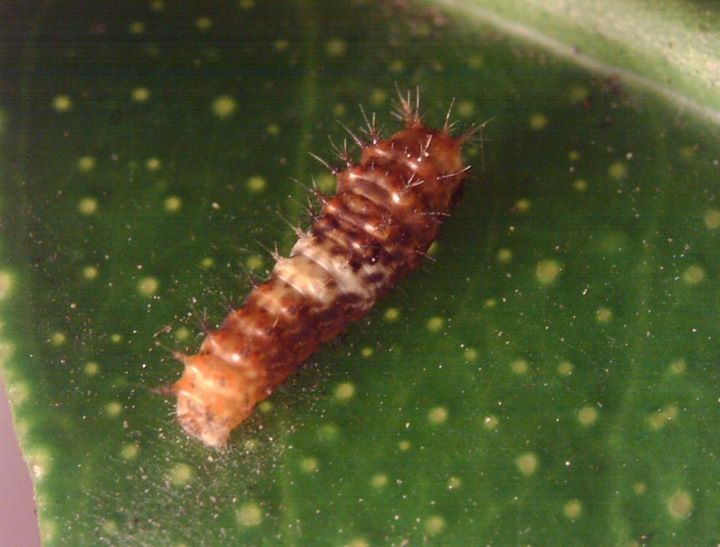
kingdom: Animalia
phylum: Arthropoda
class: Insecta
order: Lepidoptera
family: Papilionidae
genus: Papilio
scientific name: Papilio demoleus
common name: Lime butterfly
